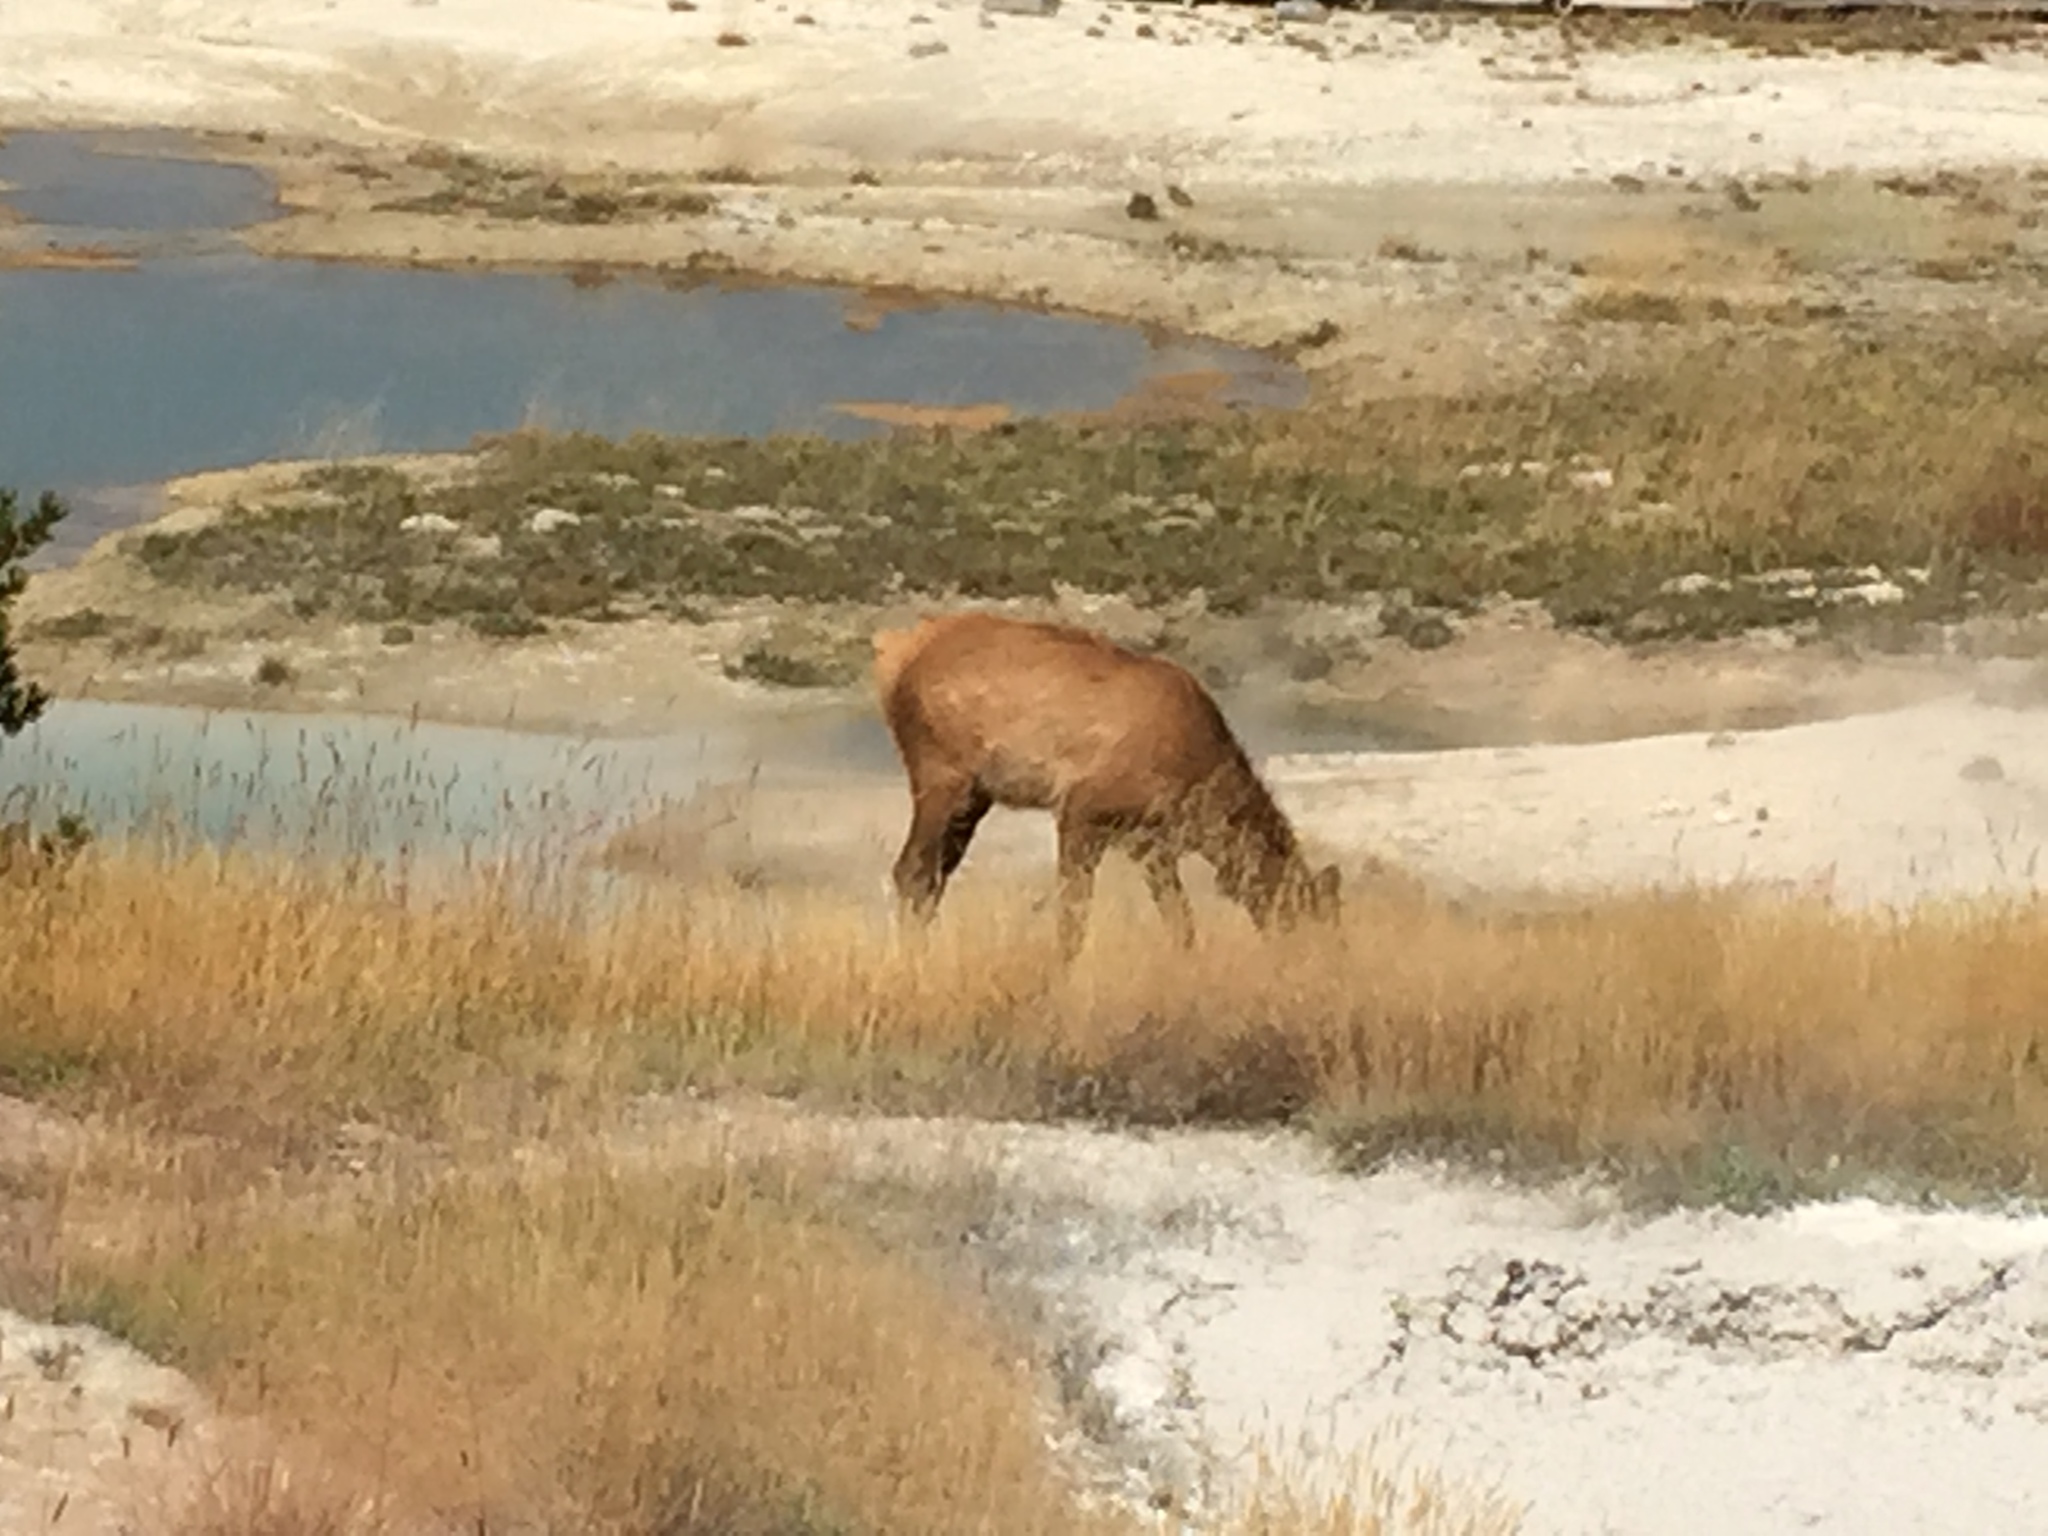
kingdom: Animalia
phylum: Chordata
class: Mammalia
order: Artiodactyla
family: Cervidae
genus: Cervus
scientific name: Cervus elaphus
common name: Red deer
